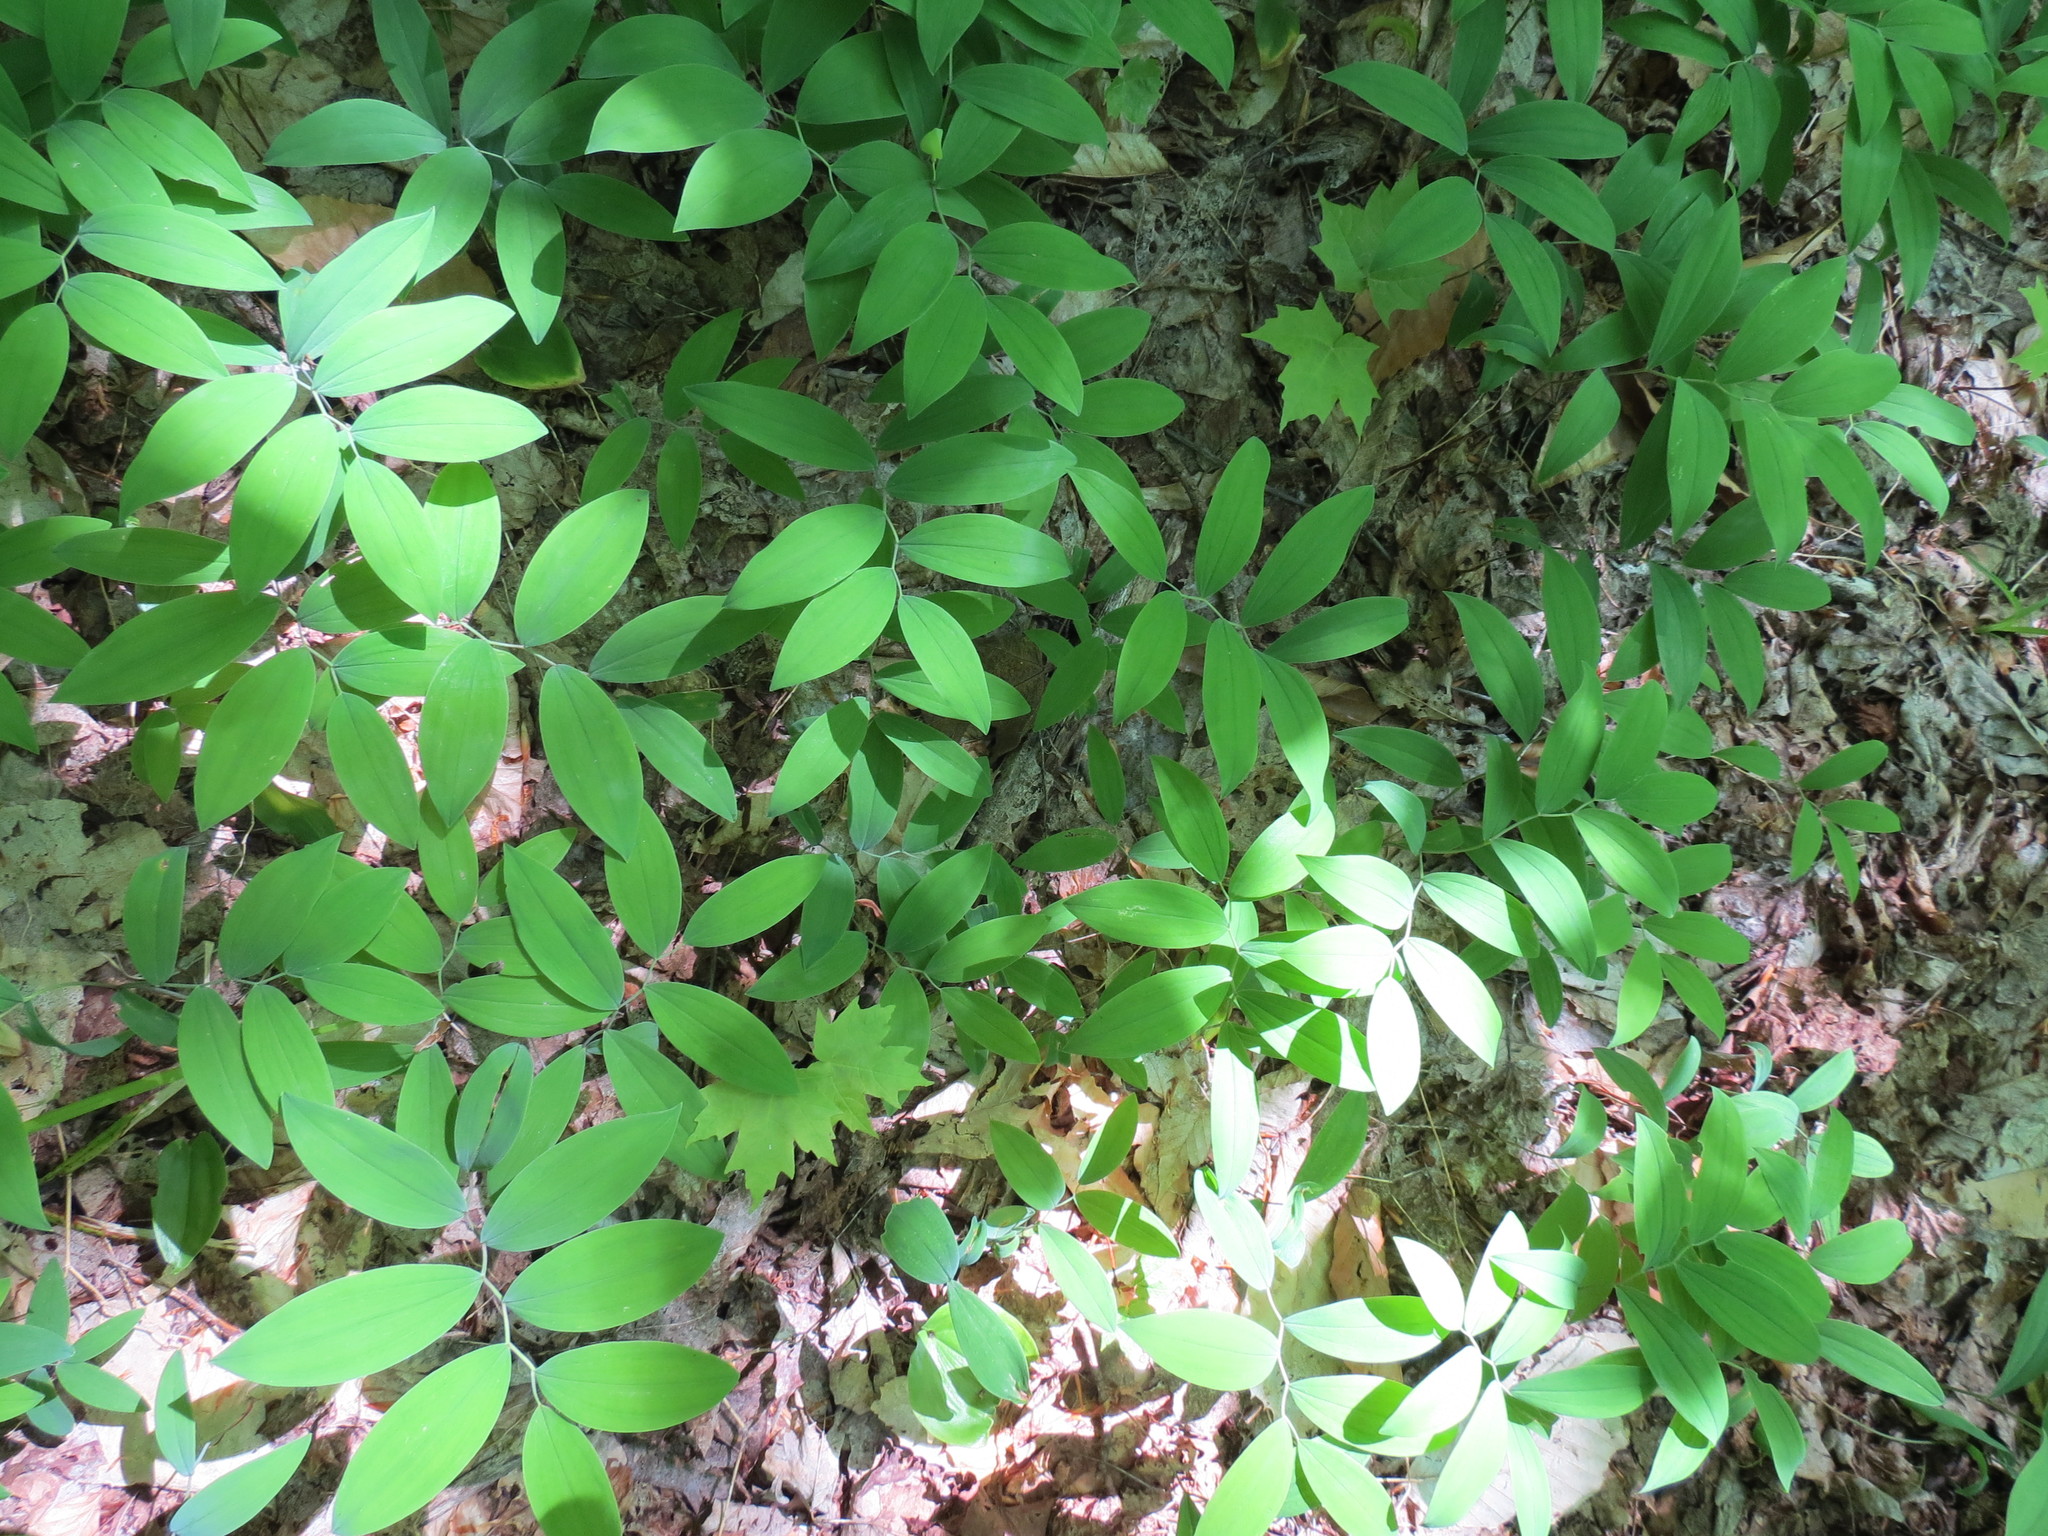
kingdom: Plantae
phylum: Tracheophyta
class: Liliopsida
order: Liliales
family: Colchicaceae
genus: Uvularia
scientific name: Uvularia sessilifolia
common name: Straw-lily
